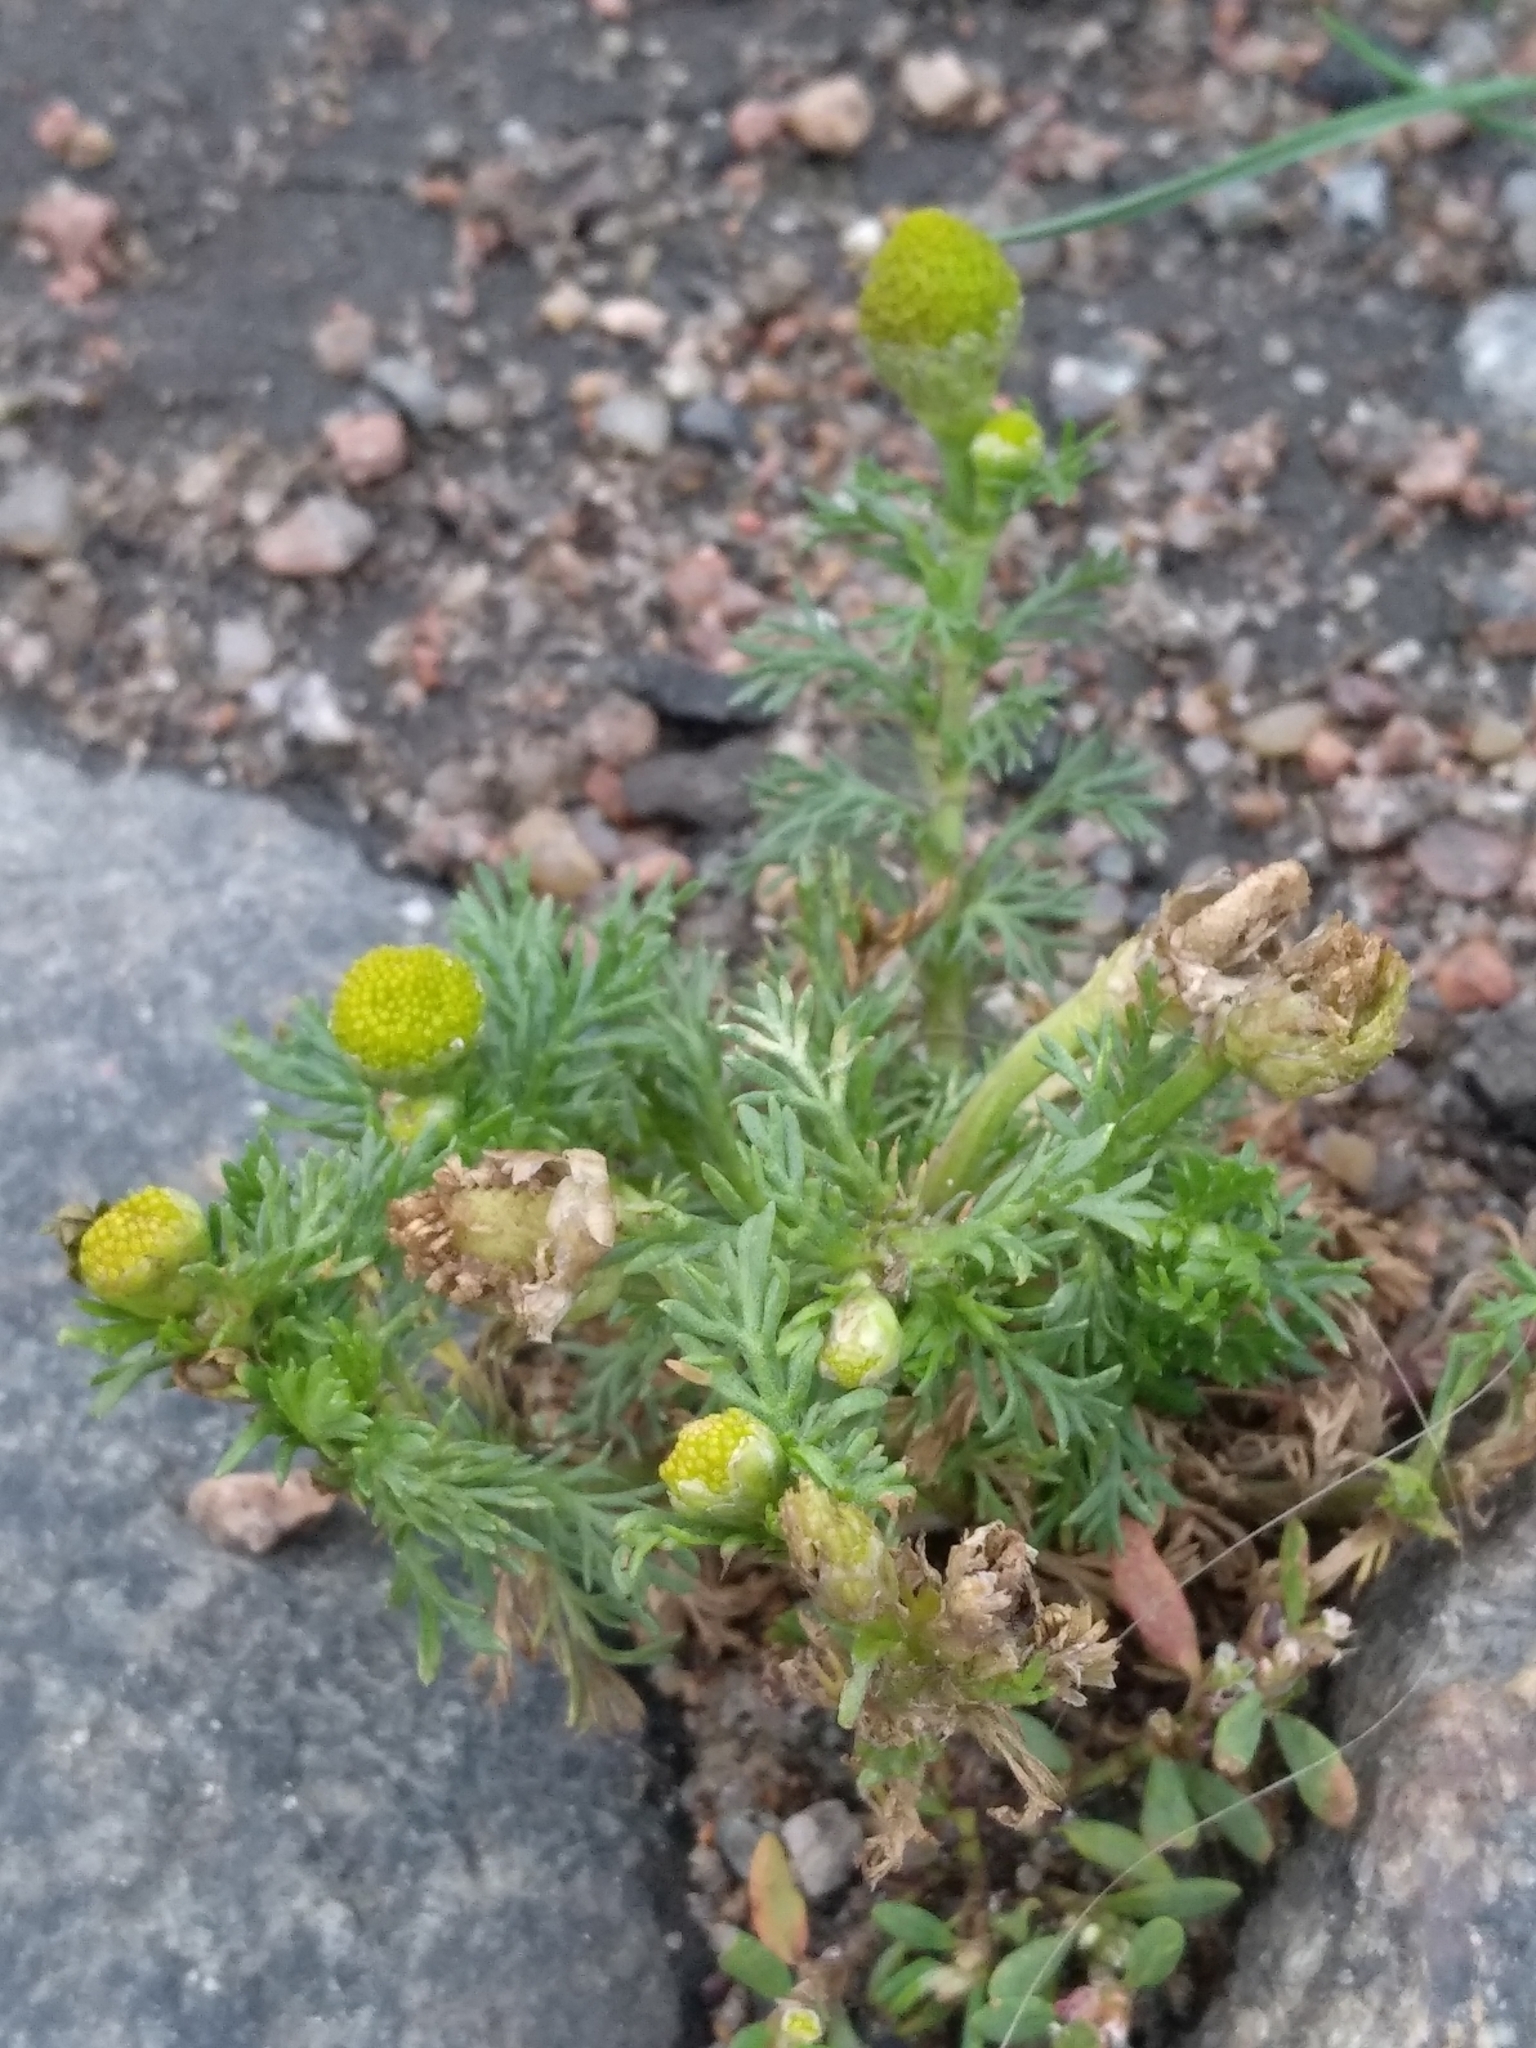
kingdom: Plantae
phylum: Tracheophyta
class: Magnoliopsida
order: Asterales
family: Asteraceae
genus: Matricaria
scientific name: Matricaria discoidea
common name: Disc mayweed
